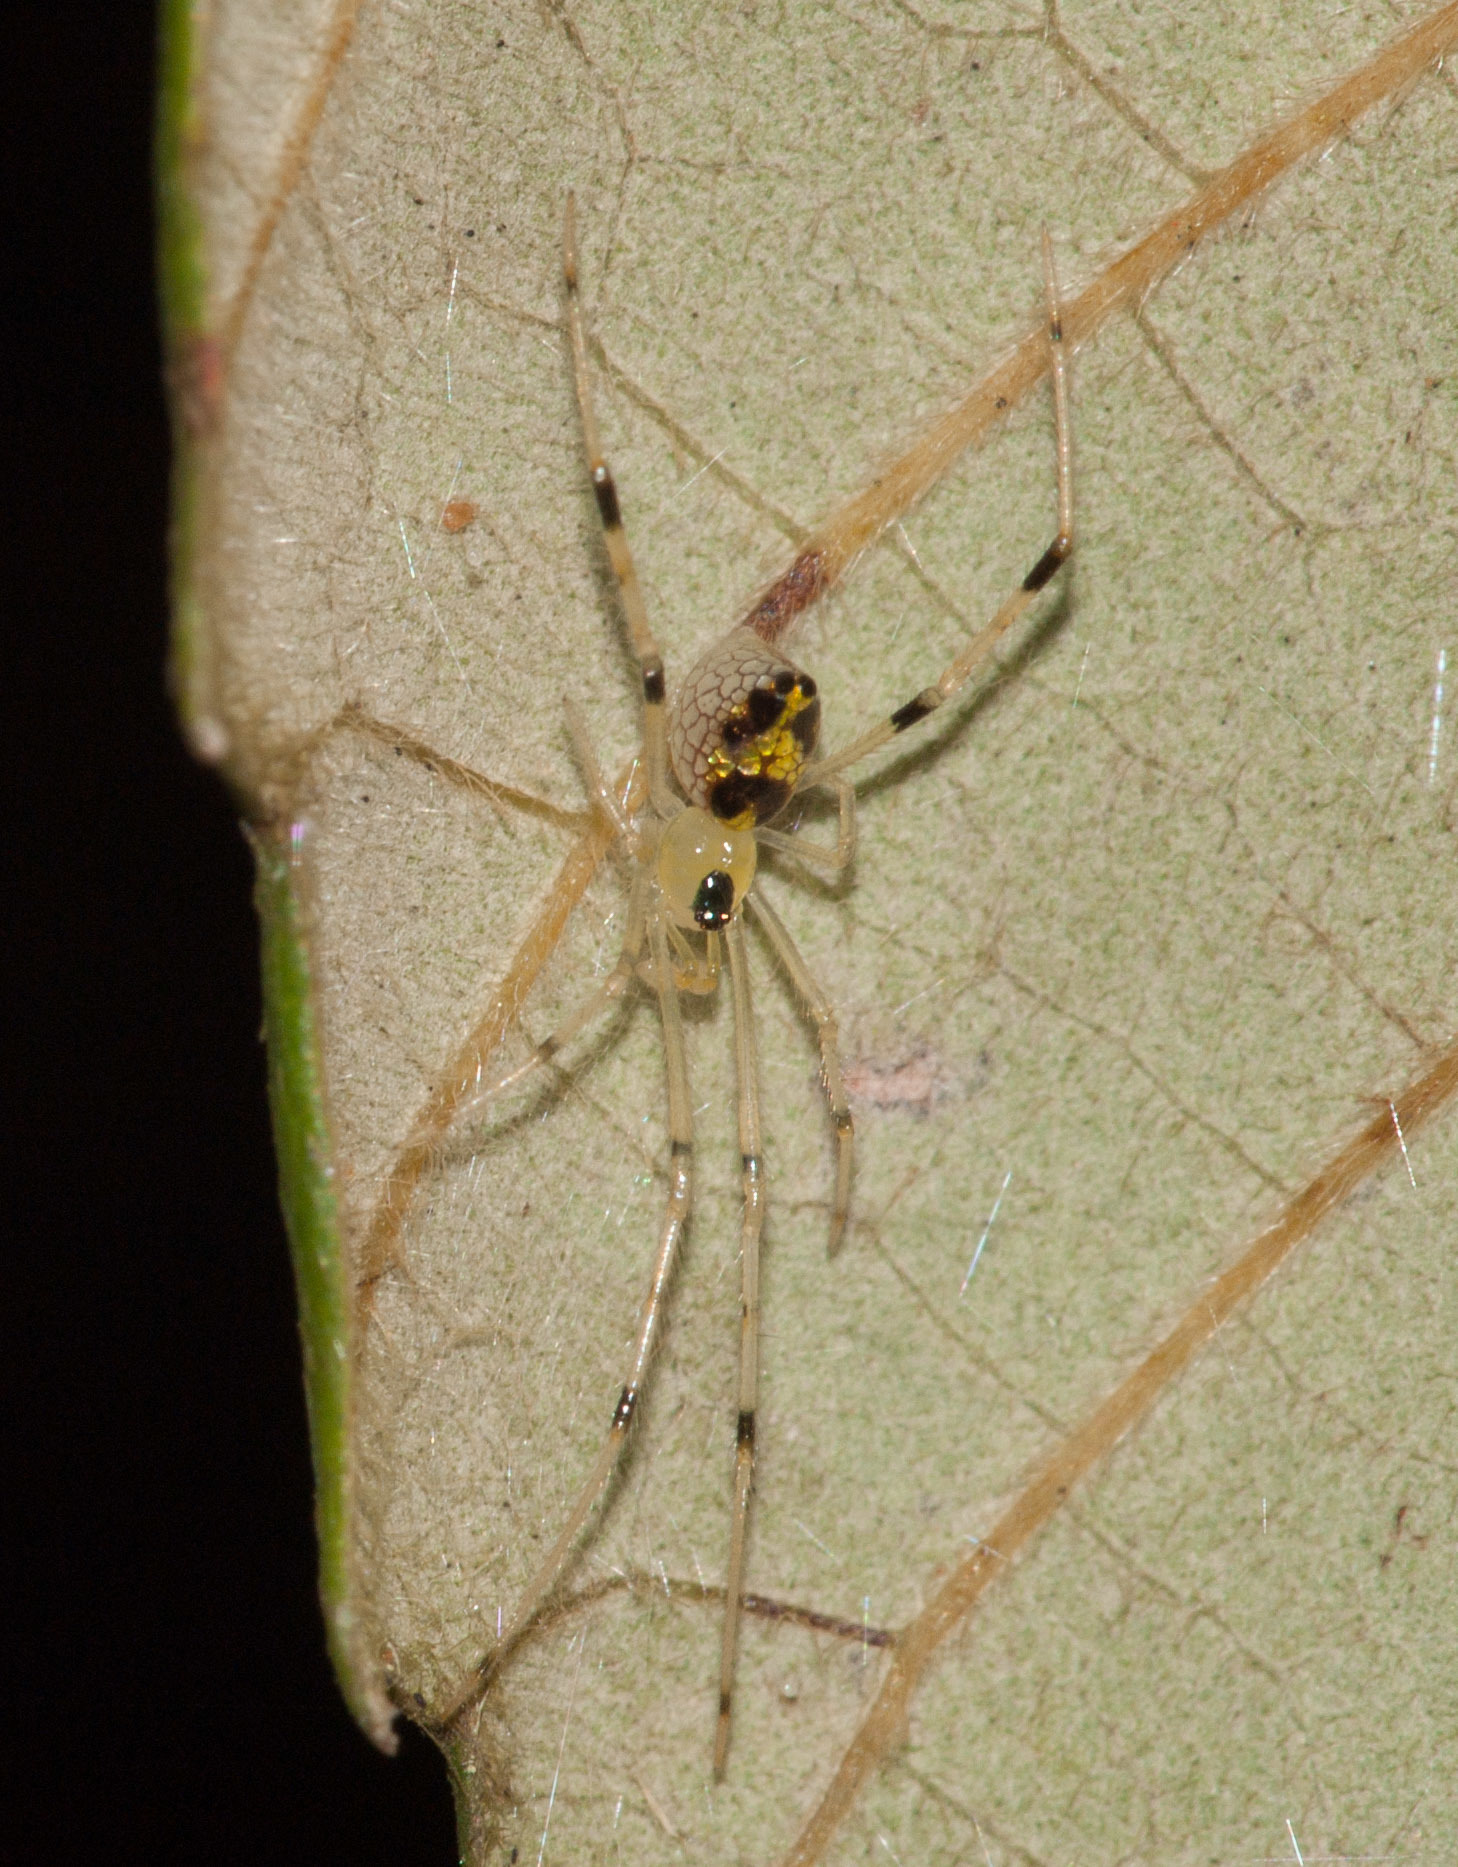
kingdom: Animalia
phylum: Arthropoda
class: Arachnida
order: Araneae
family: Theridiidae
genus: Thwaitesia
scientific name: Thwaitesia nigronodosa
